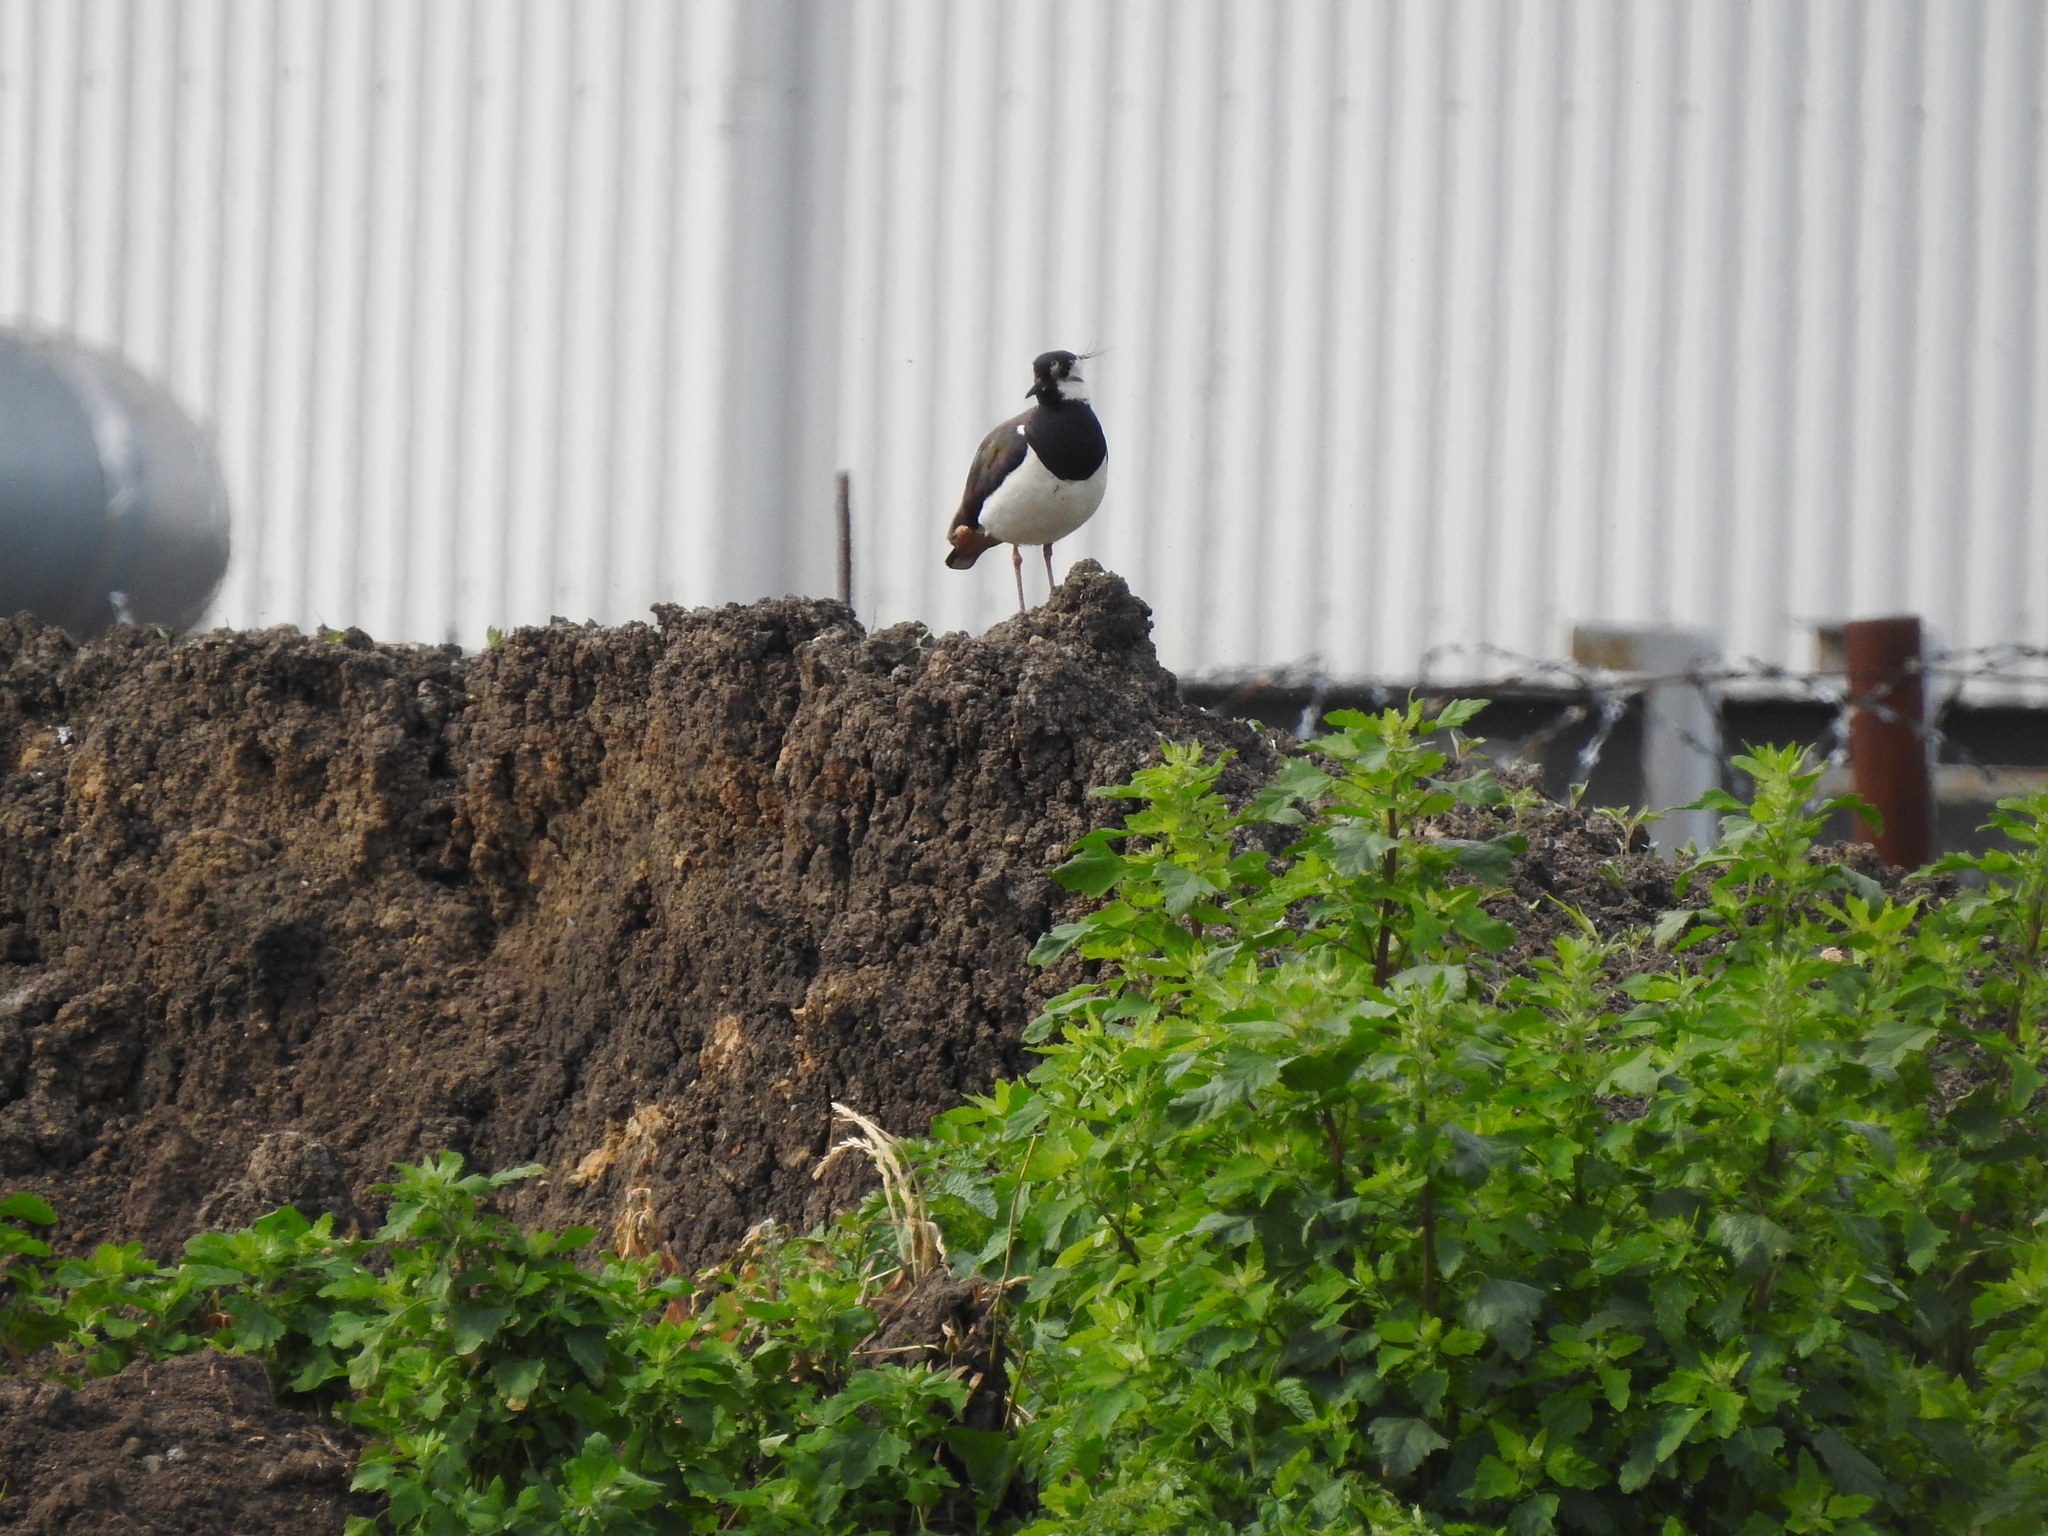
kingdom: Animalia
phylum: Chordata
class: Aves
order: Charadriiformes
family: Charadriidae
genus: Vanellus
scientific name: Vanellus vanellus
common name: Northern lapwing
